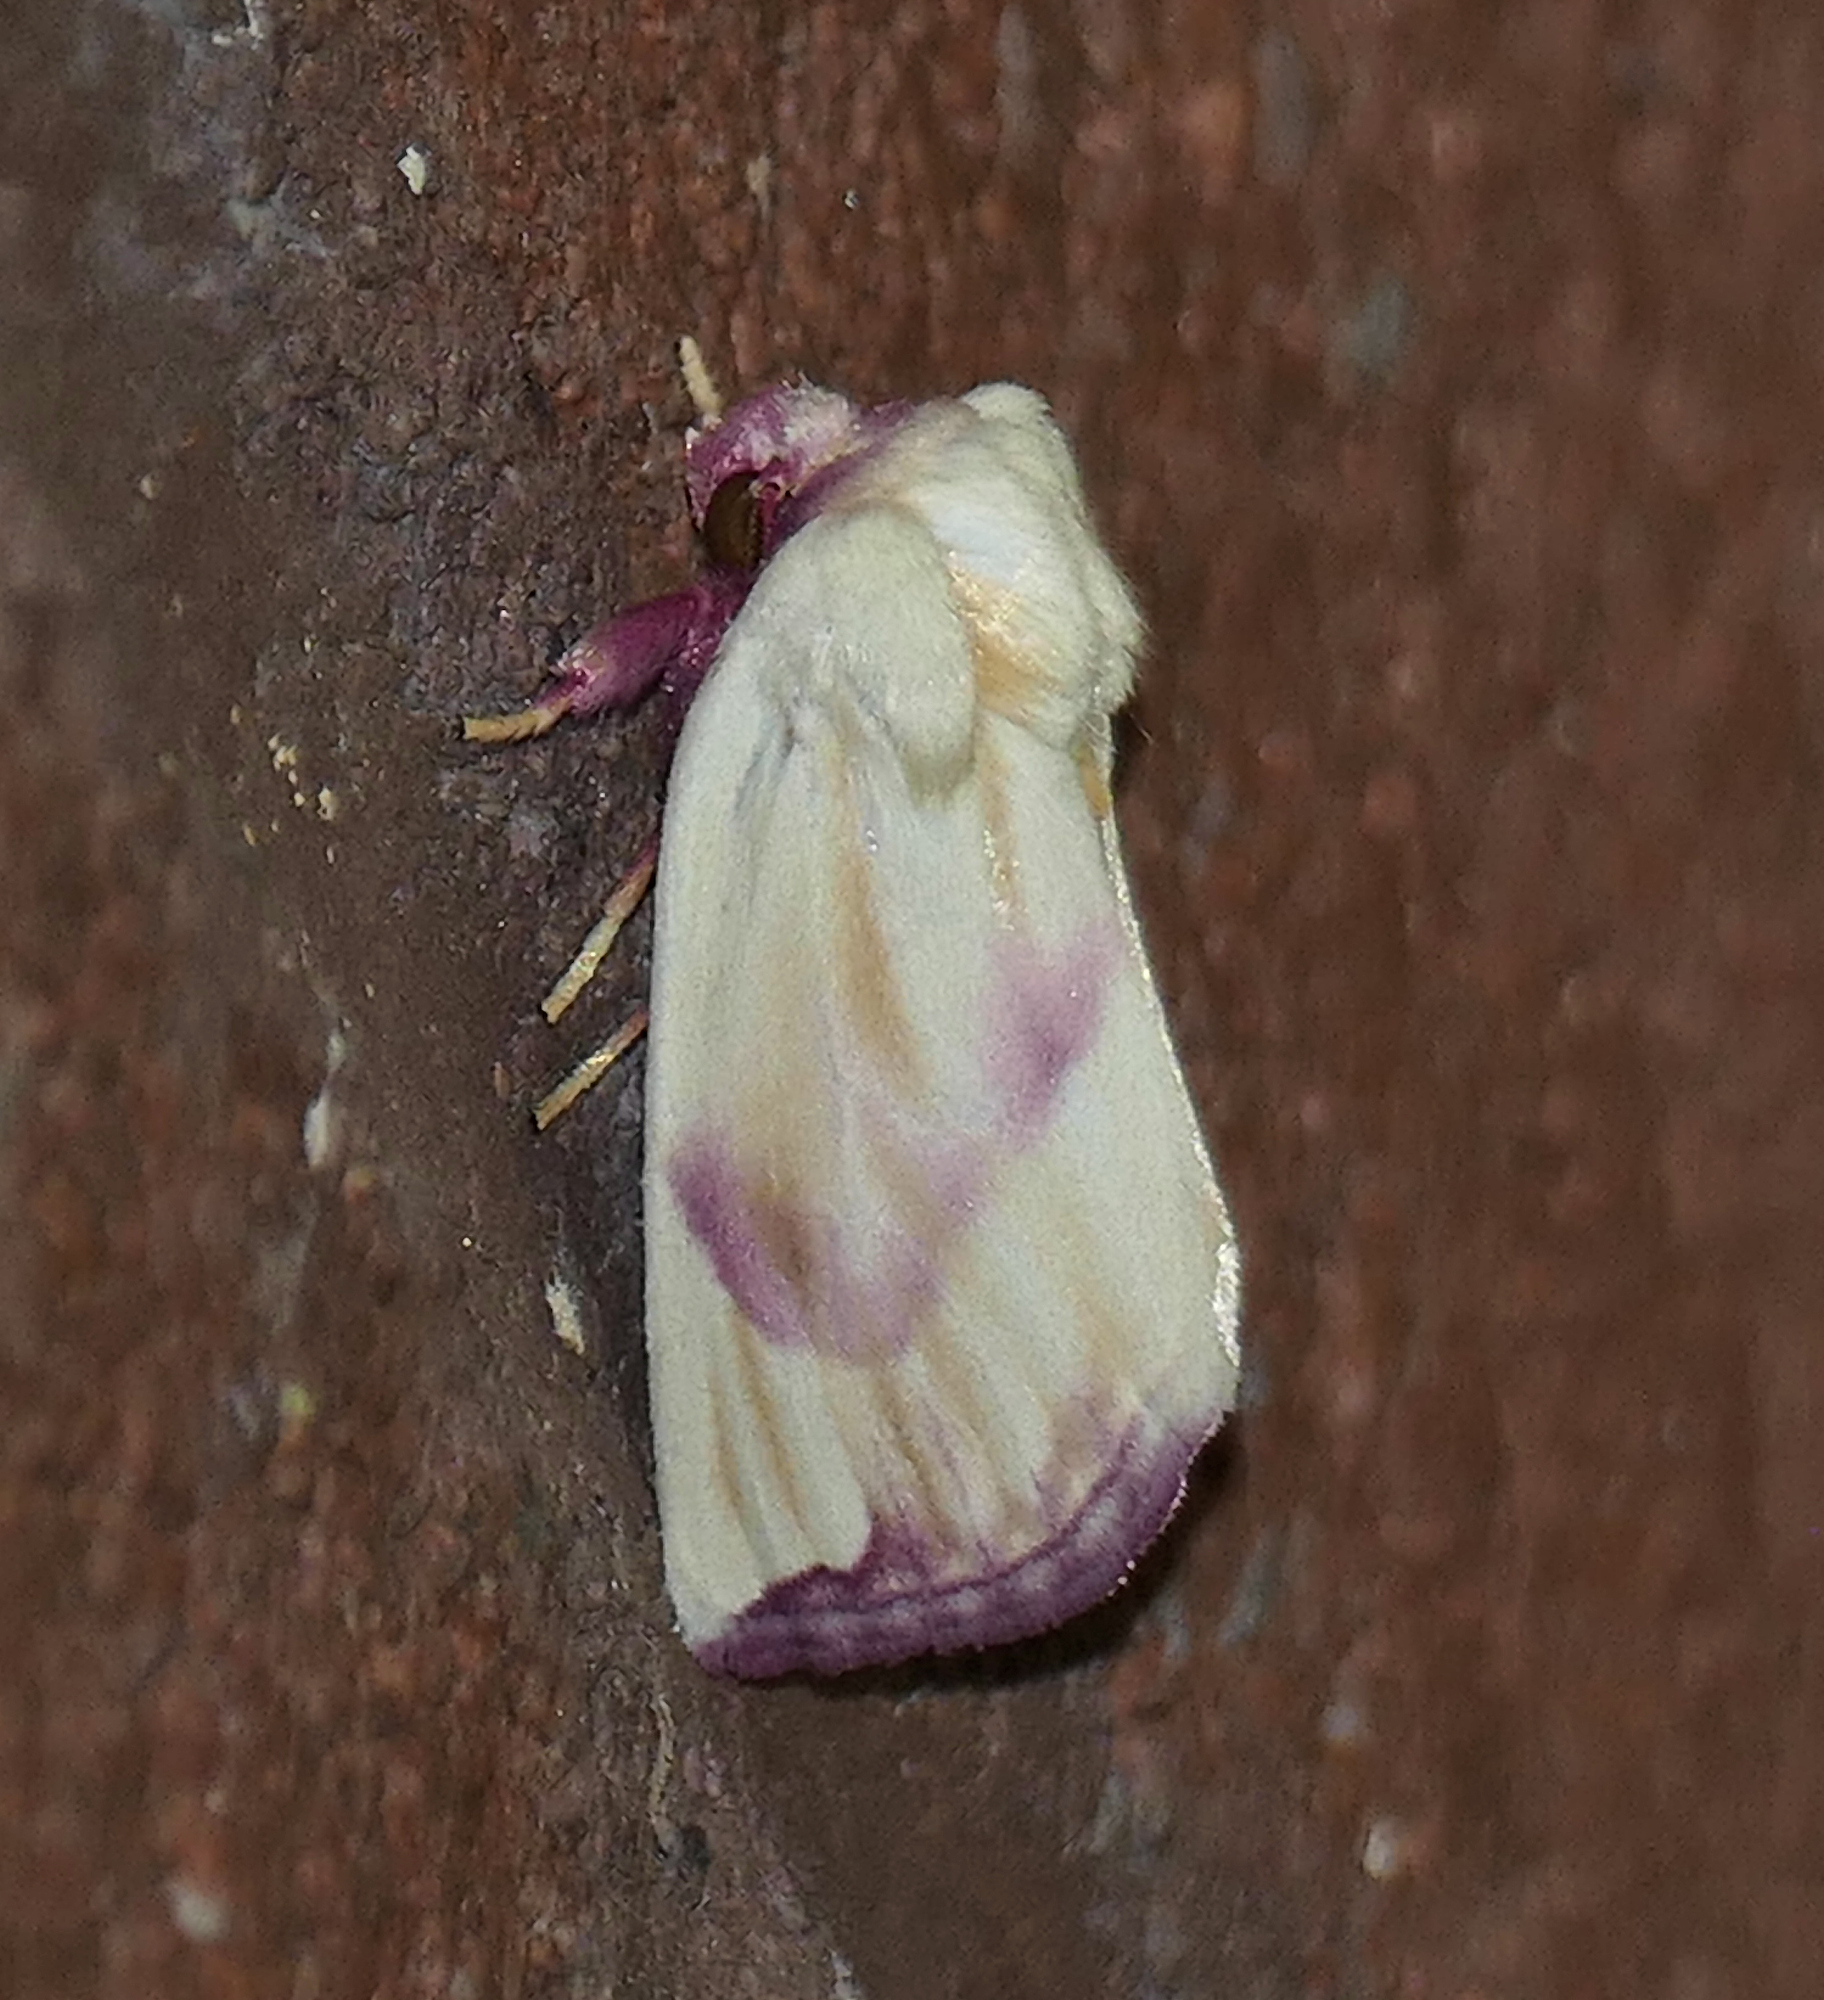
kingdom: Animalia
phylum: Arthropoda
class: Insecta
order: Lepidoptera
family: Noctuidae
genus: Thurberiphaga
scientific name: Thurberiphaga diffusa
